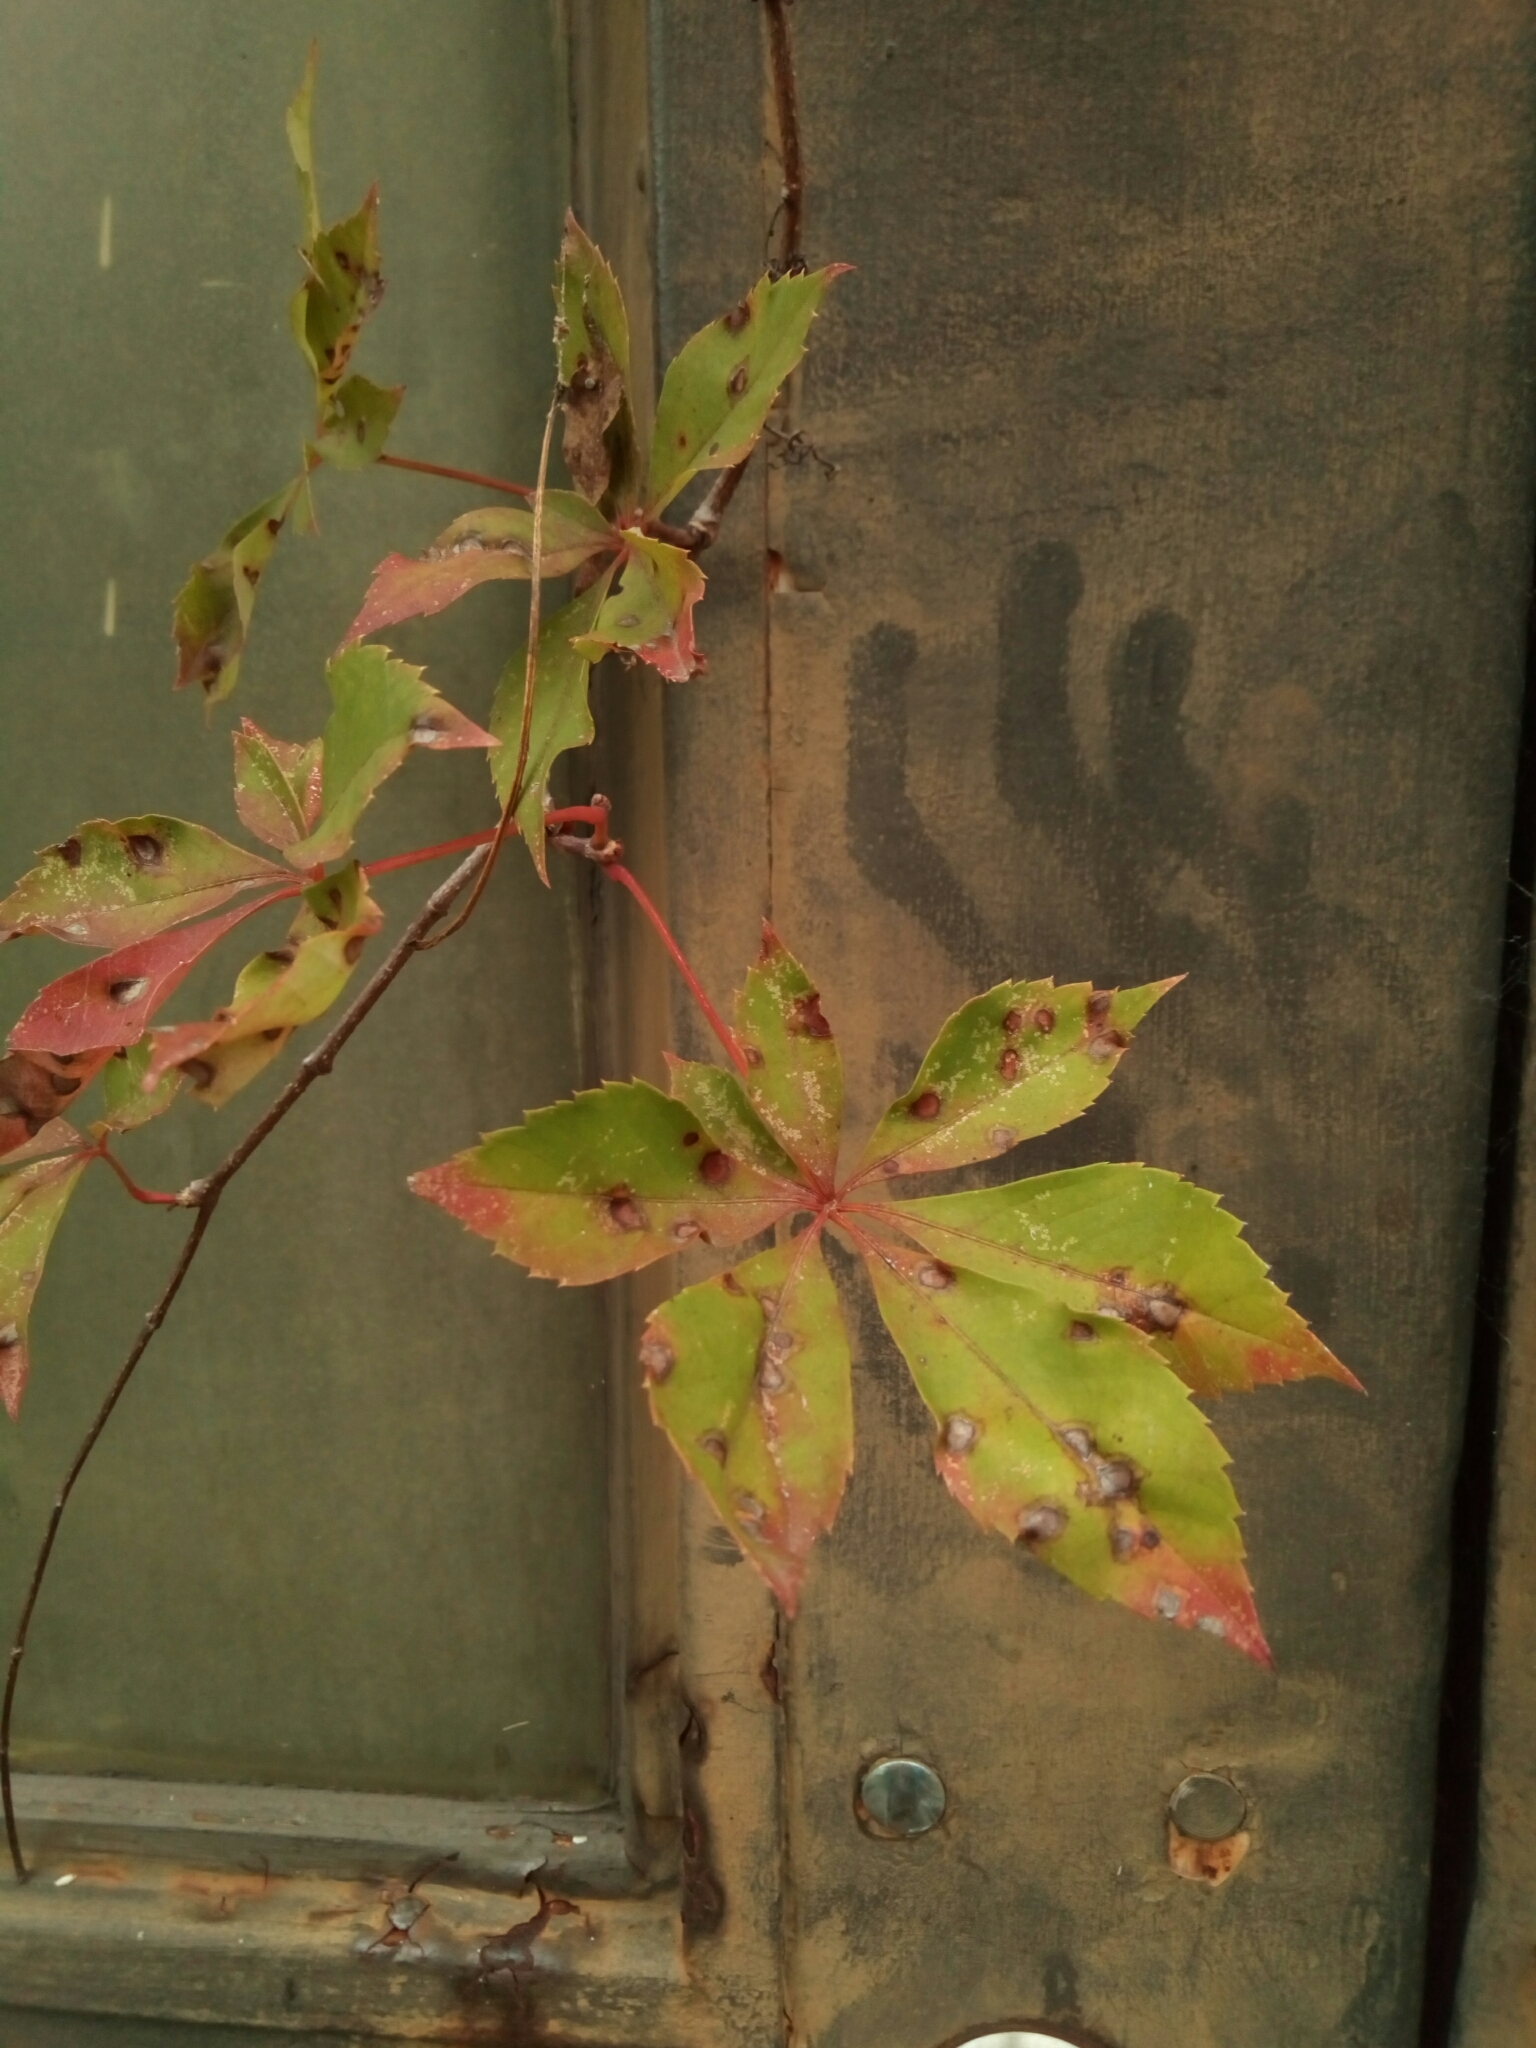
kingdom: Plantae
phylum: Tracheophyta
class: Magnoliopsida
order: Vitales
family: Vitaceae
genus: Parthenocissus
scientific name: Parthenocissus quinquefolia
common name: Virginia-creeper
